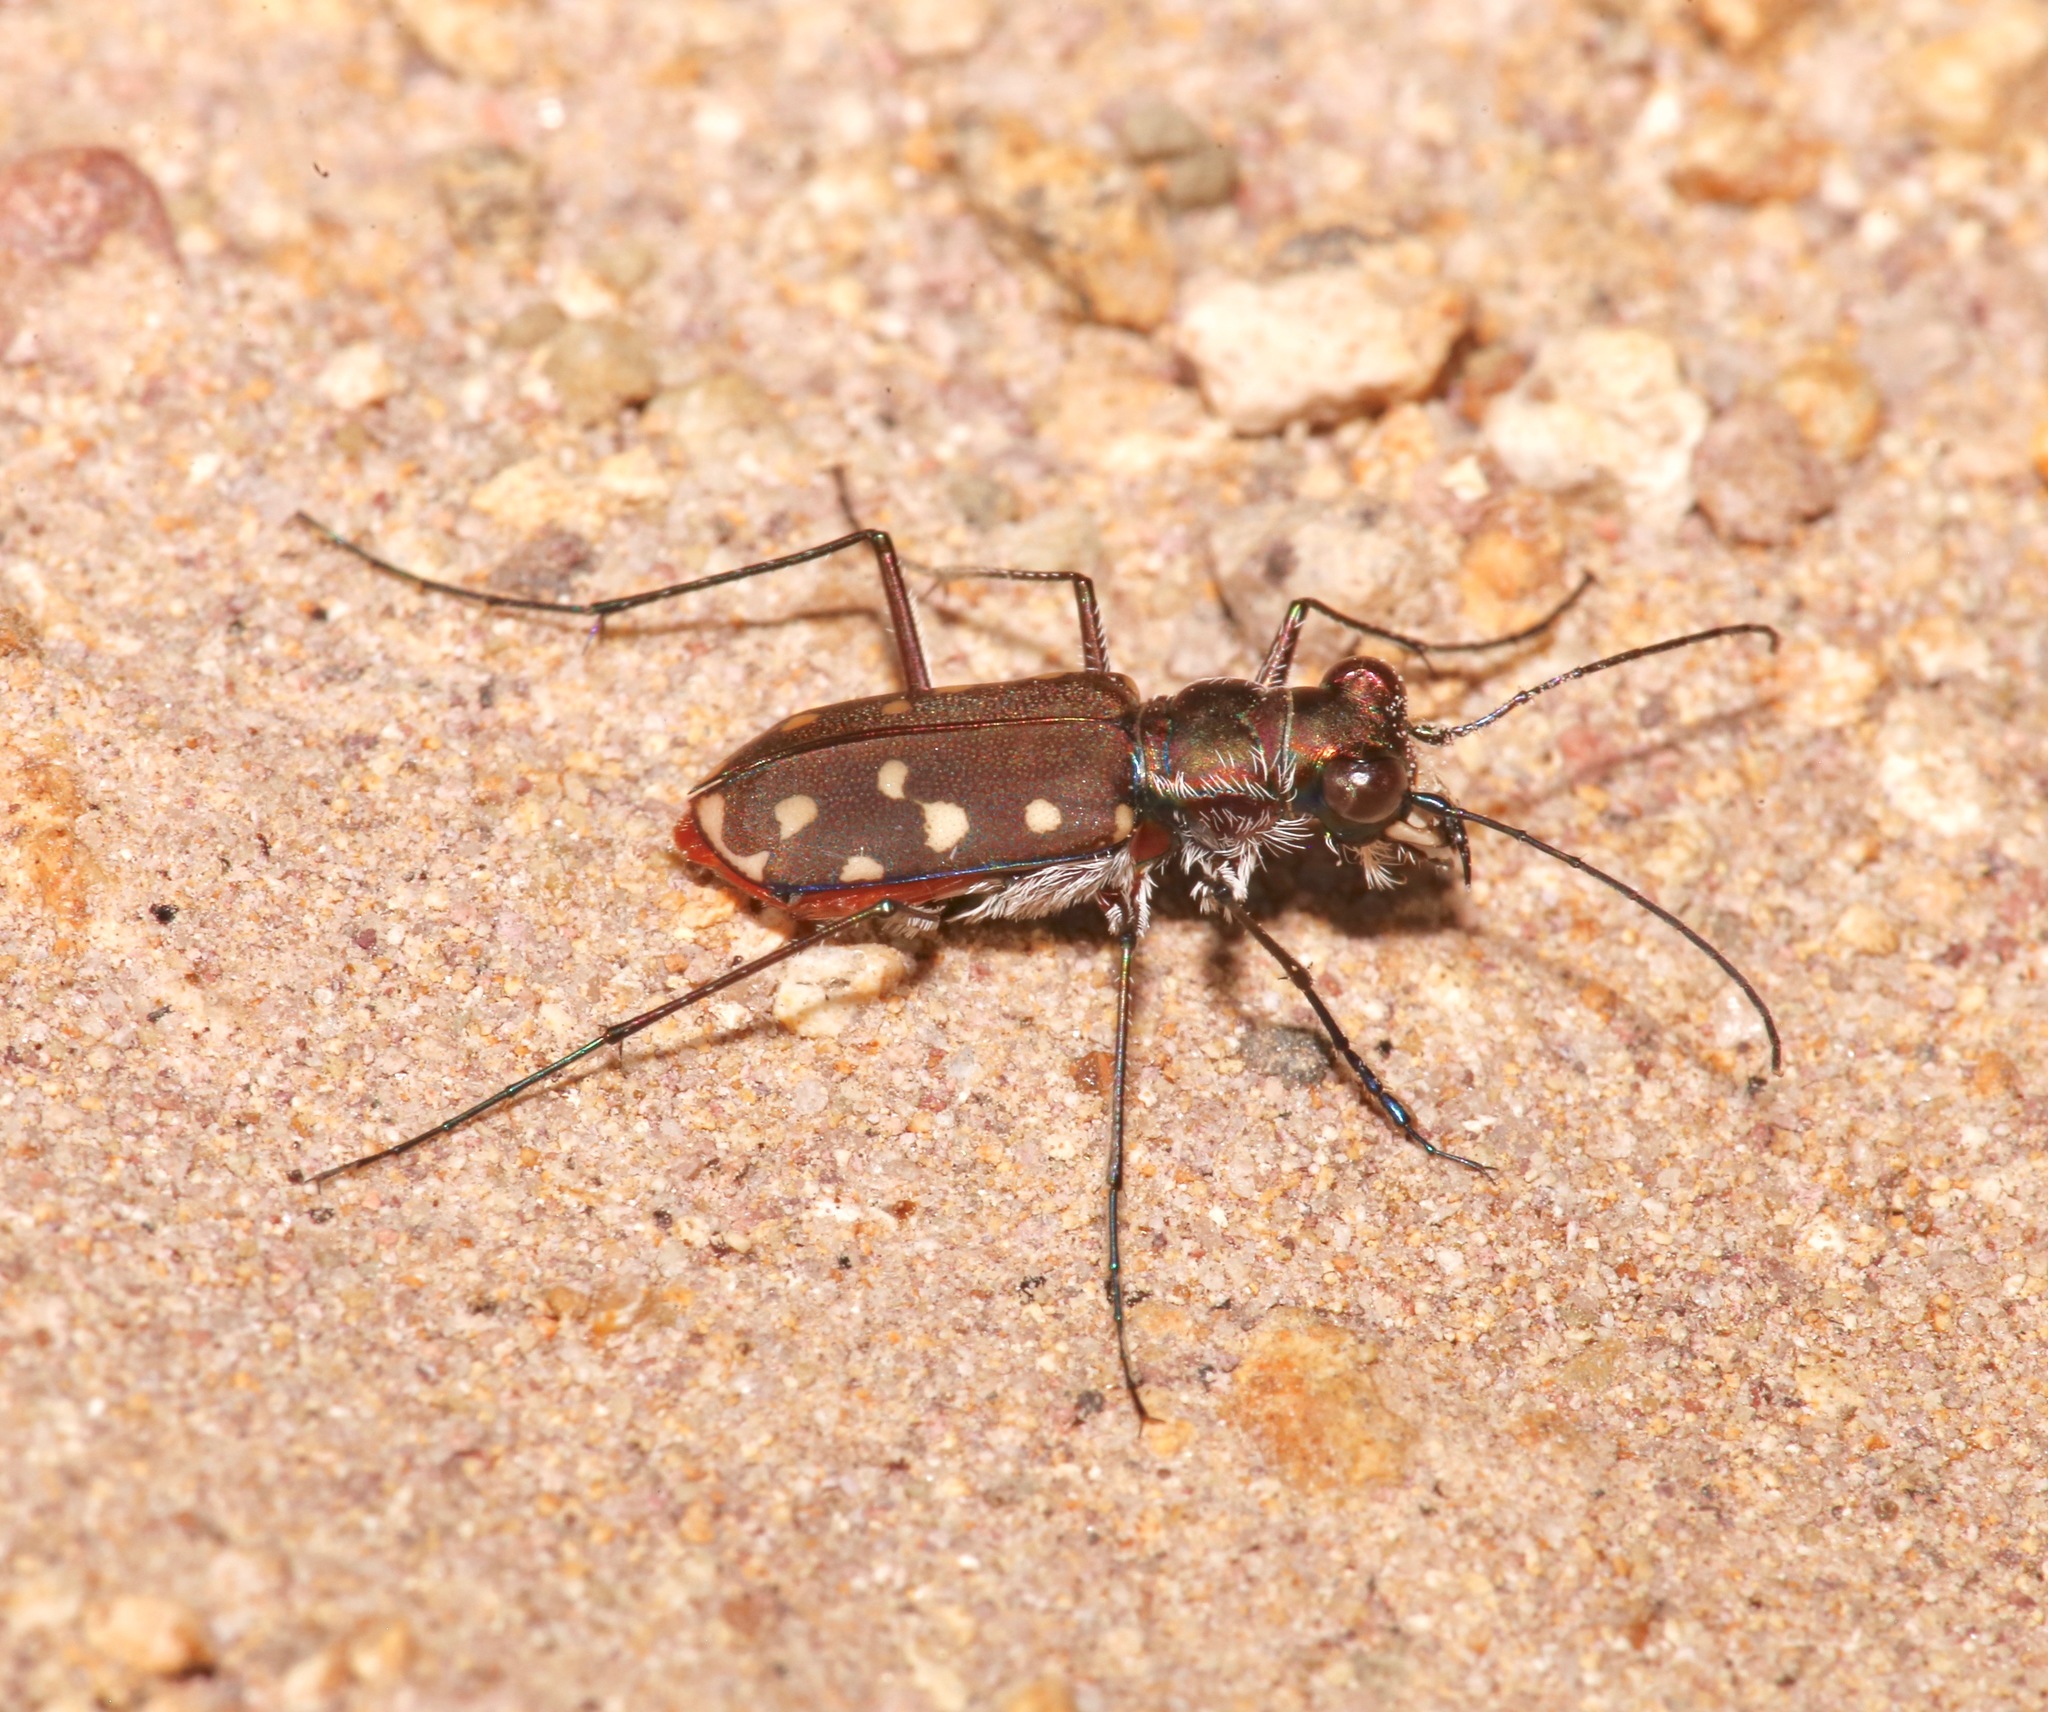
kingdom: Animalia
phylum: Arthropoda
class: Insecta
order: Coleoptera
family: Carabidae
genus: Cicindela
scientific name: Cicindela sedecimpunctata
